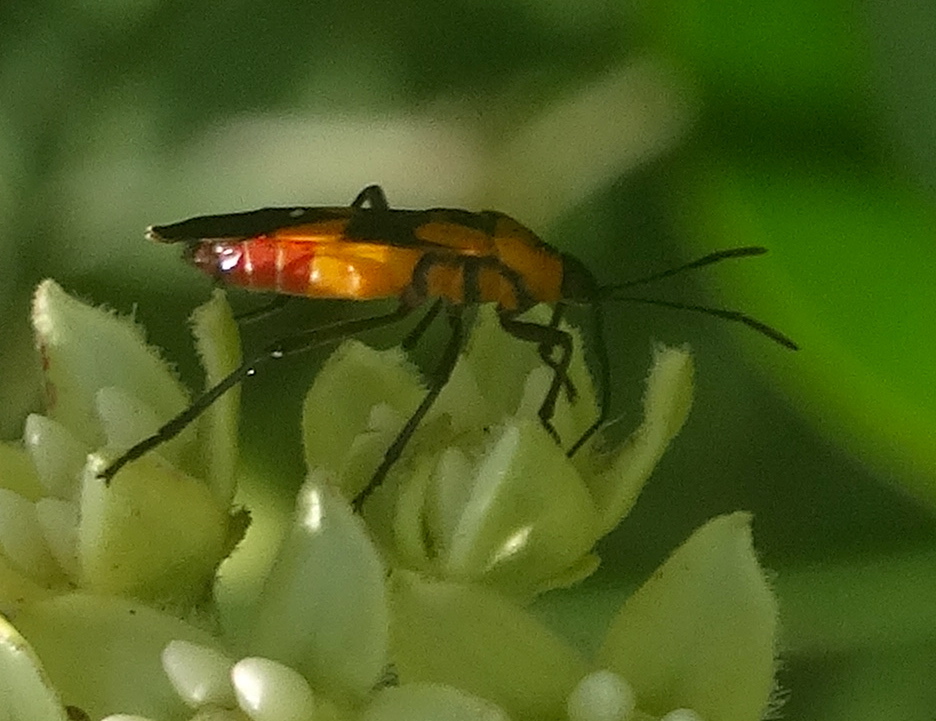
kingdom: Animalia
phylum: Arthropoda
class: Insecta
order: Hemiptera
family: Lygaeidae
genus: Oncopeltus
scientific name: Oncopeltus
